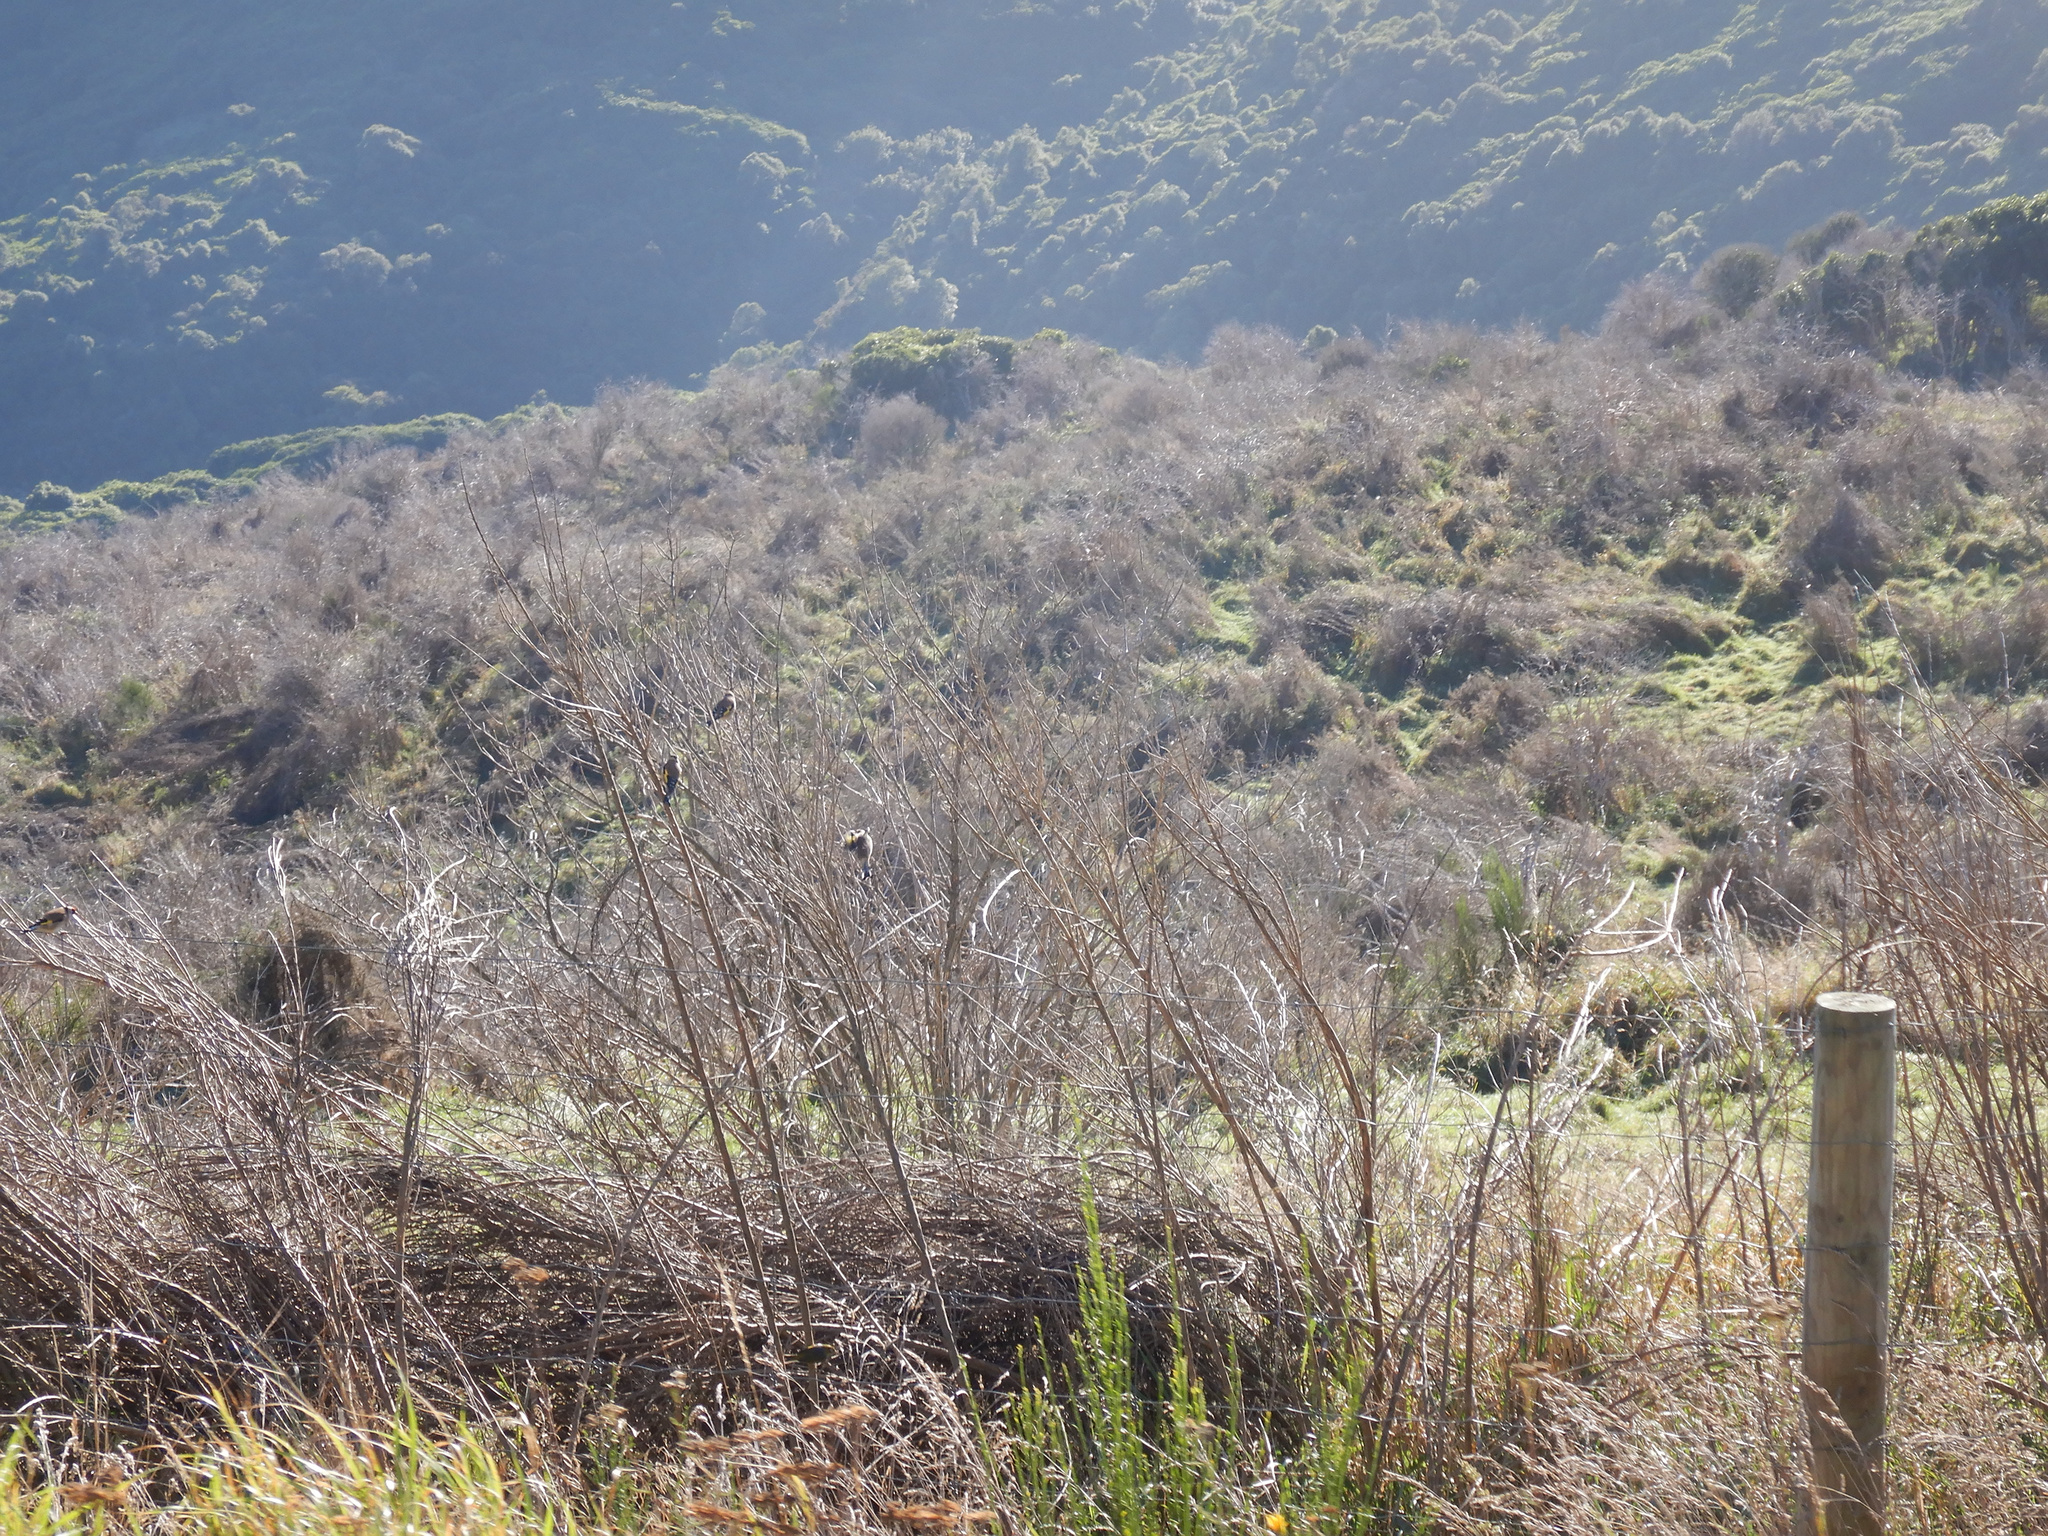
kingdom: Animalia
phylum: Chordata
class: Aves
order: Passeriformes
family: Fringillidae
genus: Carduelis
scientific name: Carduelis carduelis
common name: European goldfinch
